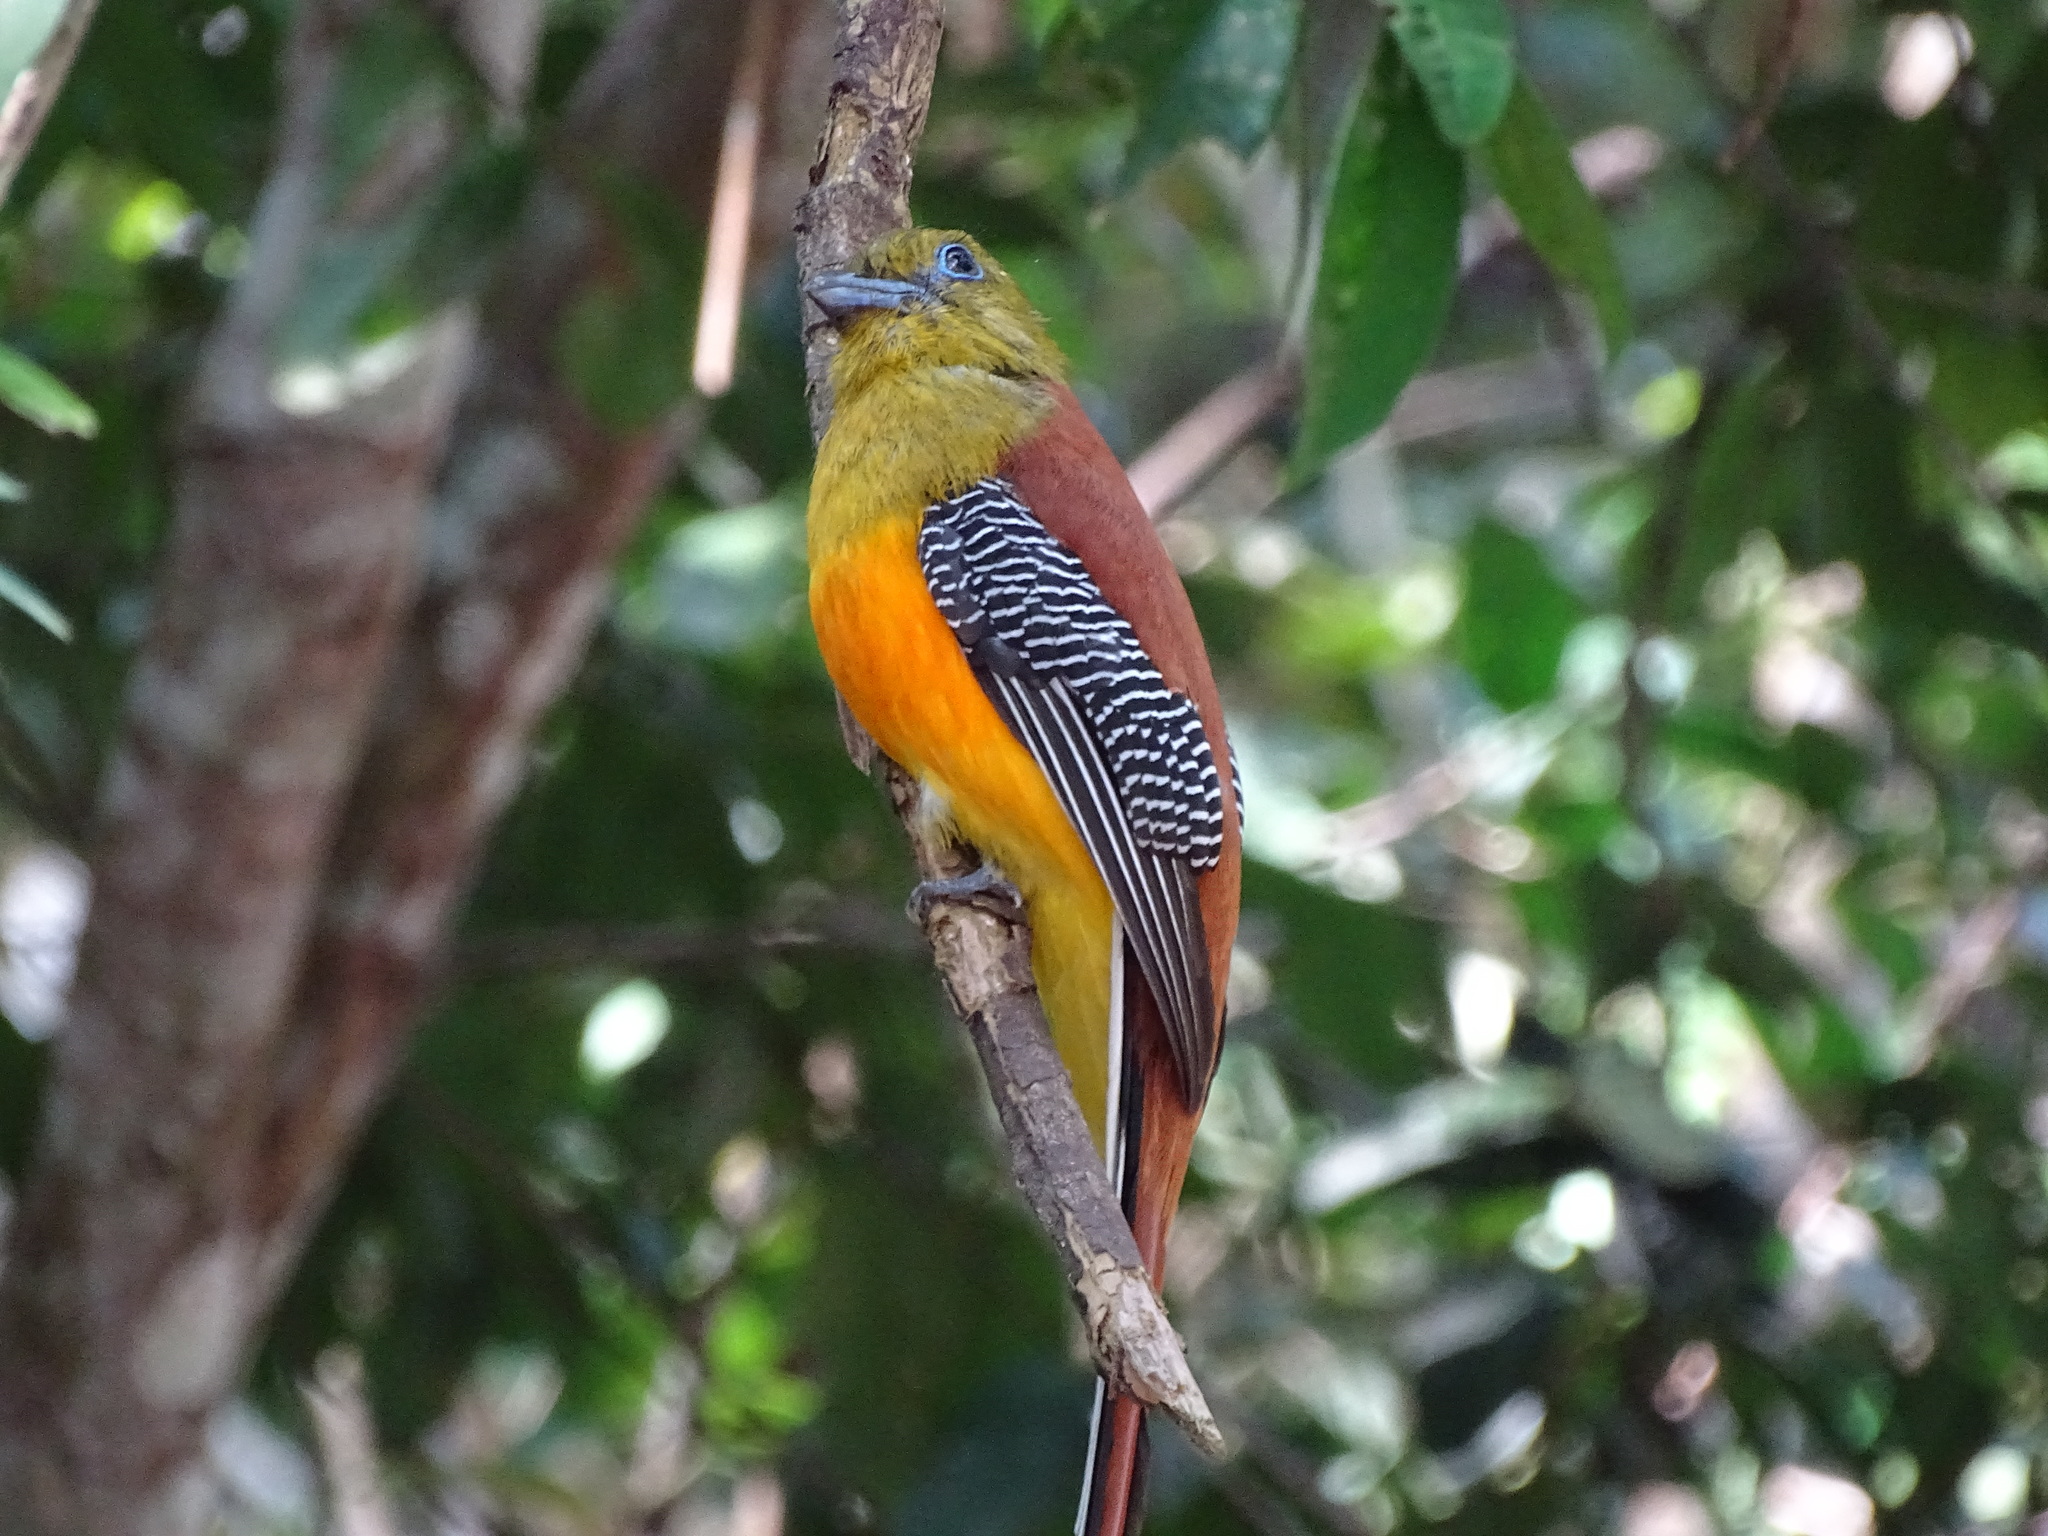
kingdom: Animalia
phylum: Chordata
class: Aves
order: Trogoniformes
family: Trogonidae
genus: Harpactes
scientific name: Harpactes oreskios
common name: Orange-breasted trogon
